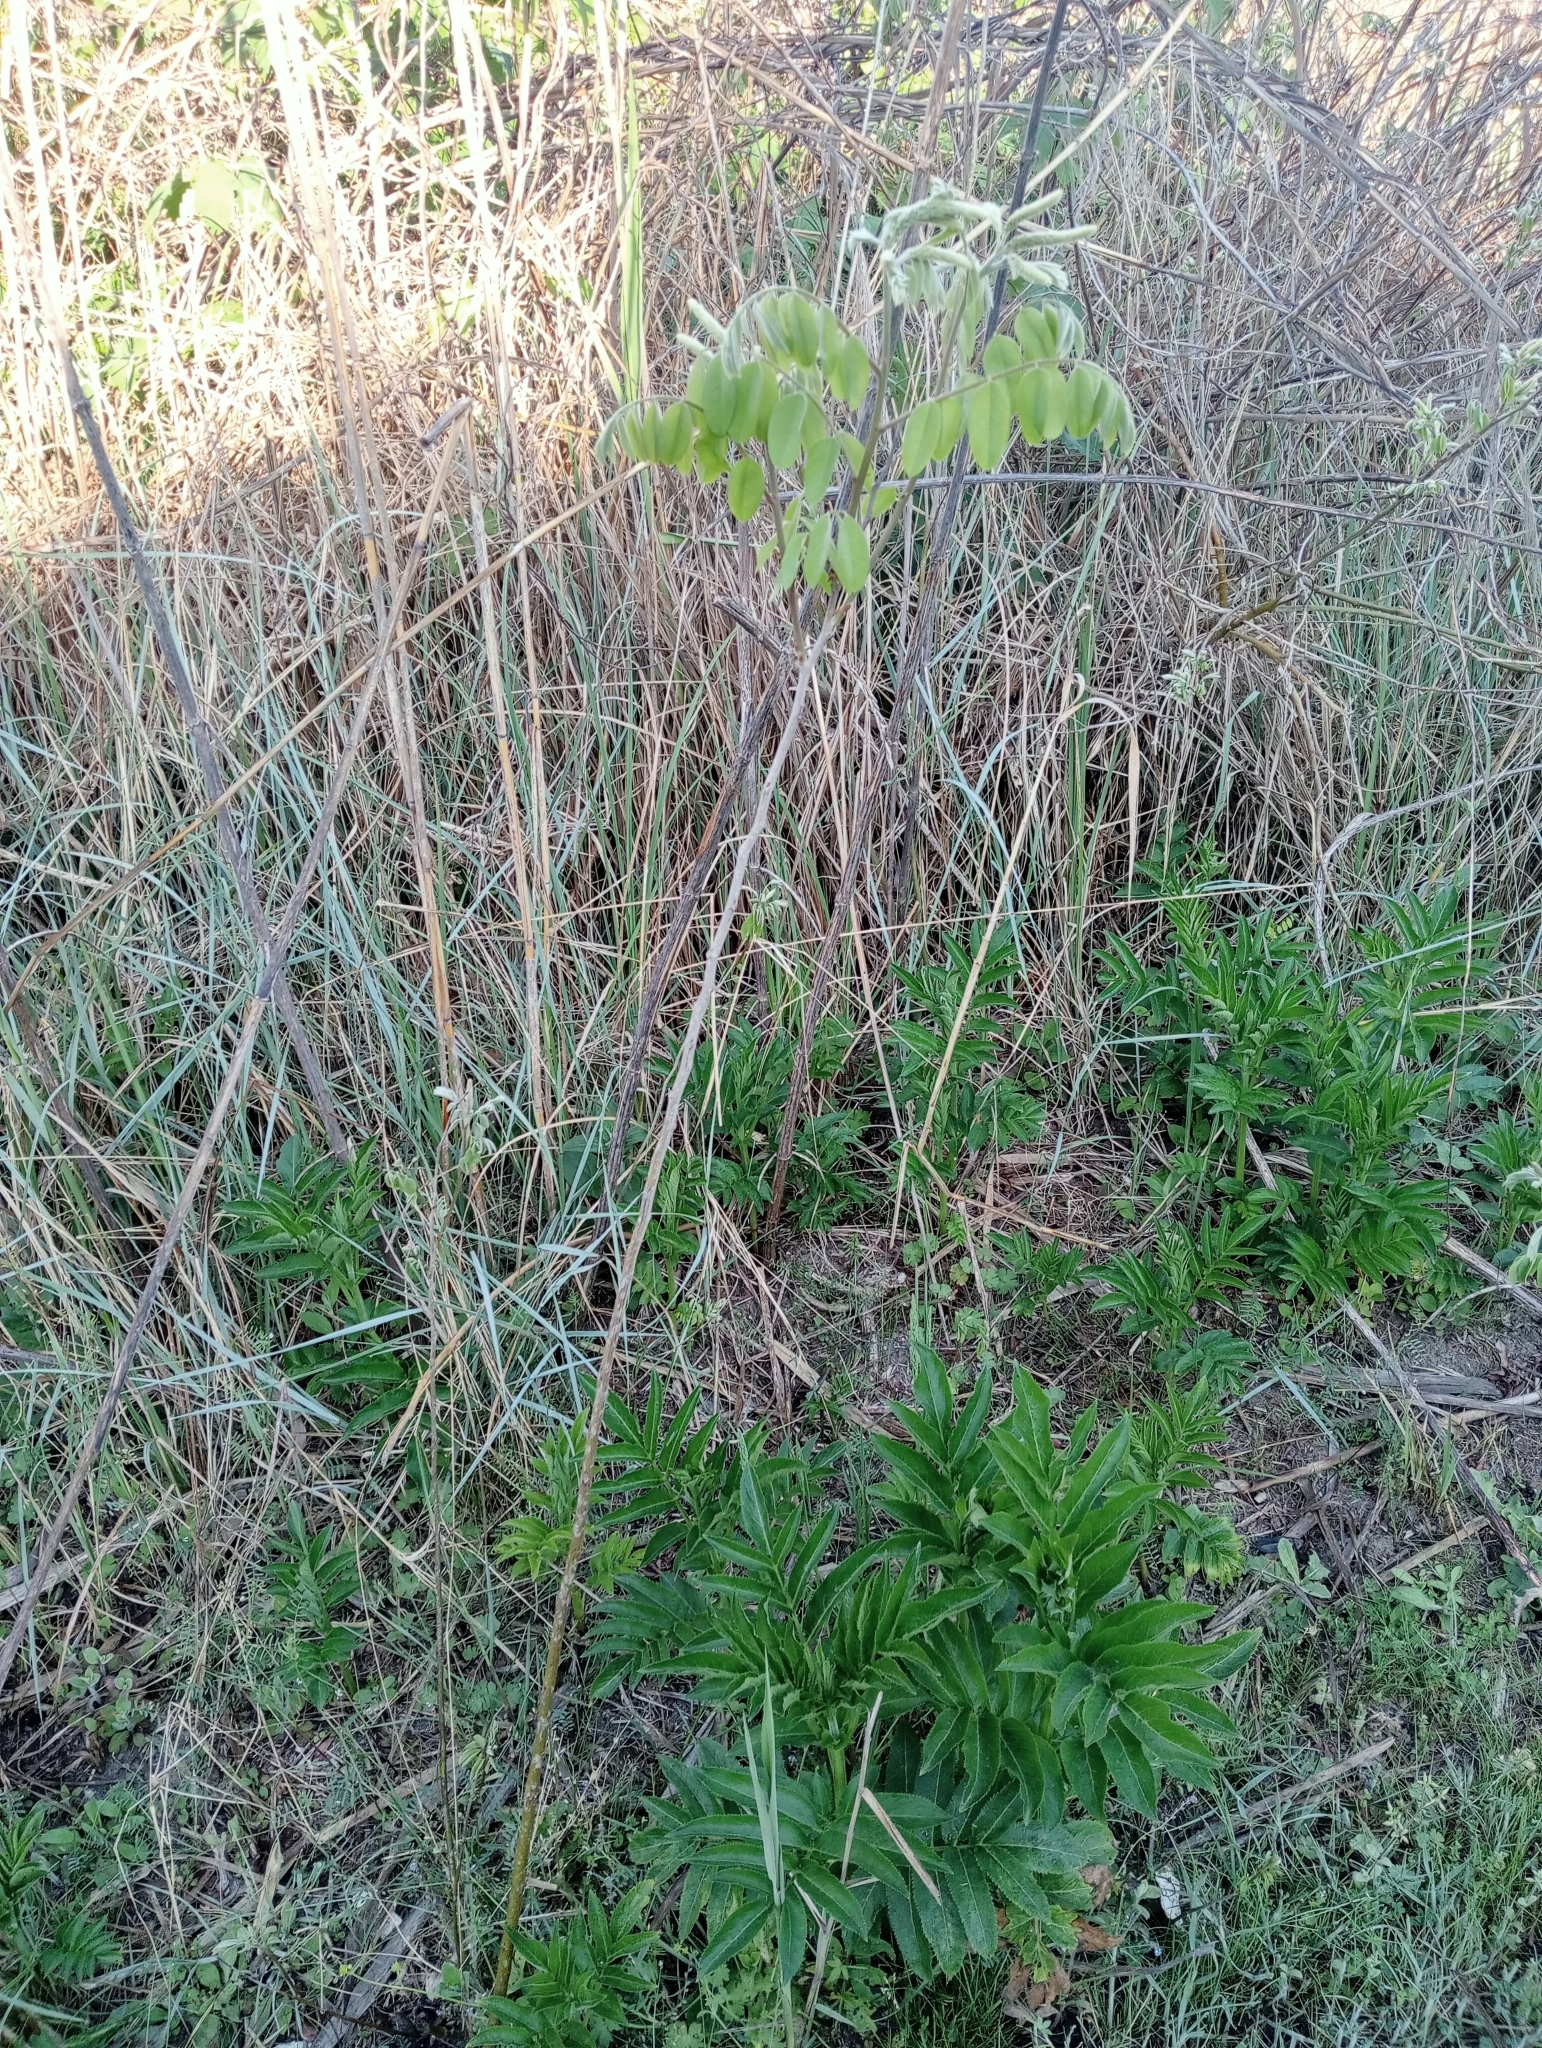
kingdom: Plantae
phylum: Tracheophyta
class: Magnoliopsida
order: Fabales
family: Fabaceae
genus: Amorpha
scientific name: Amorpha fruticosa
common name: False indigo
